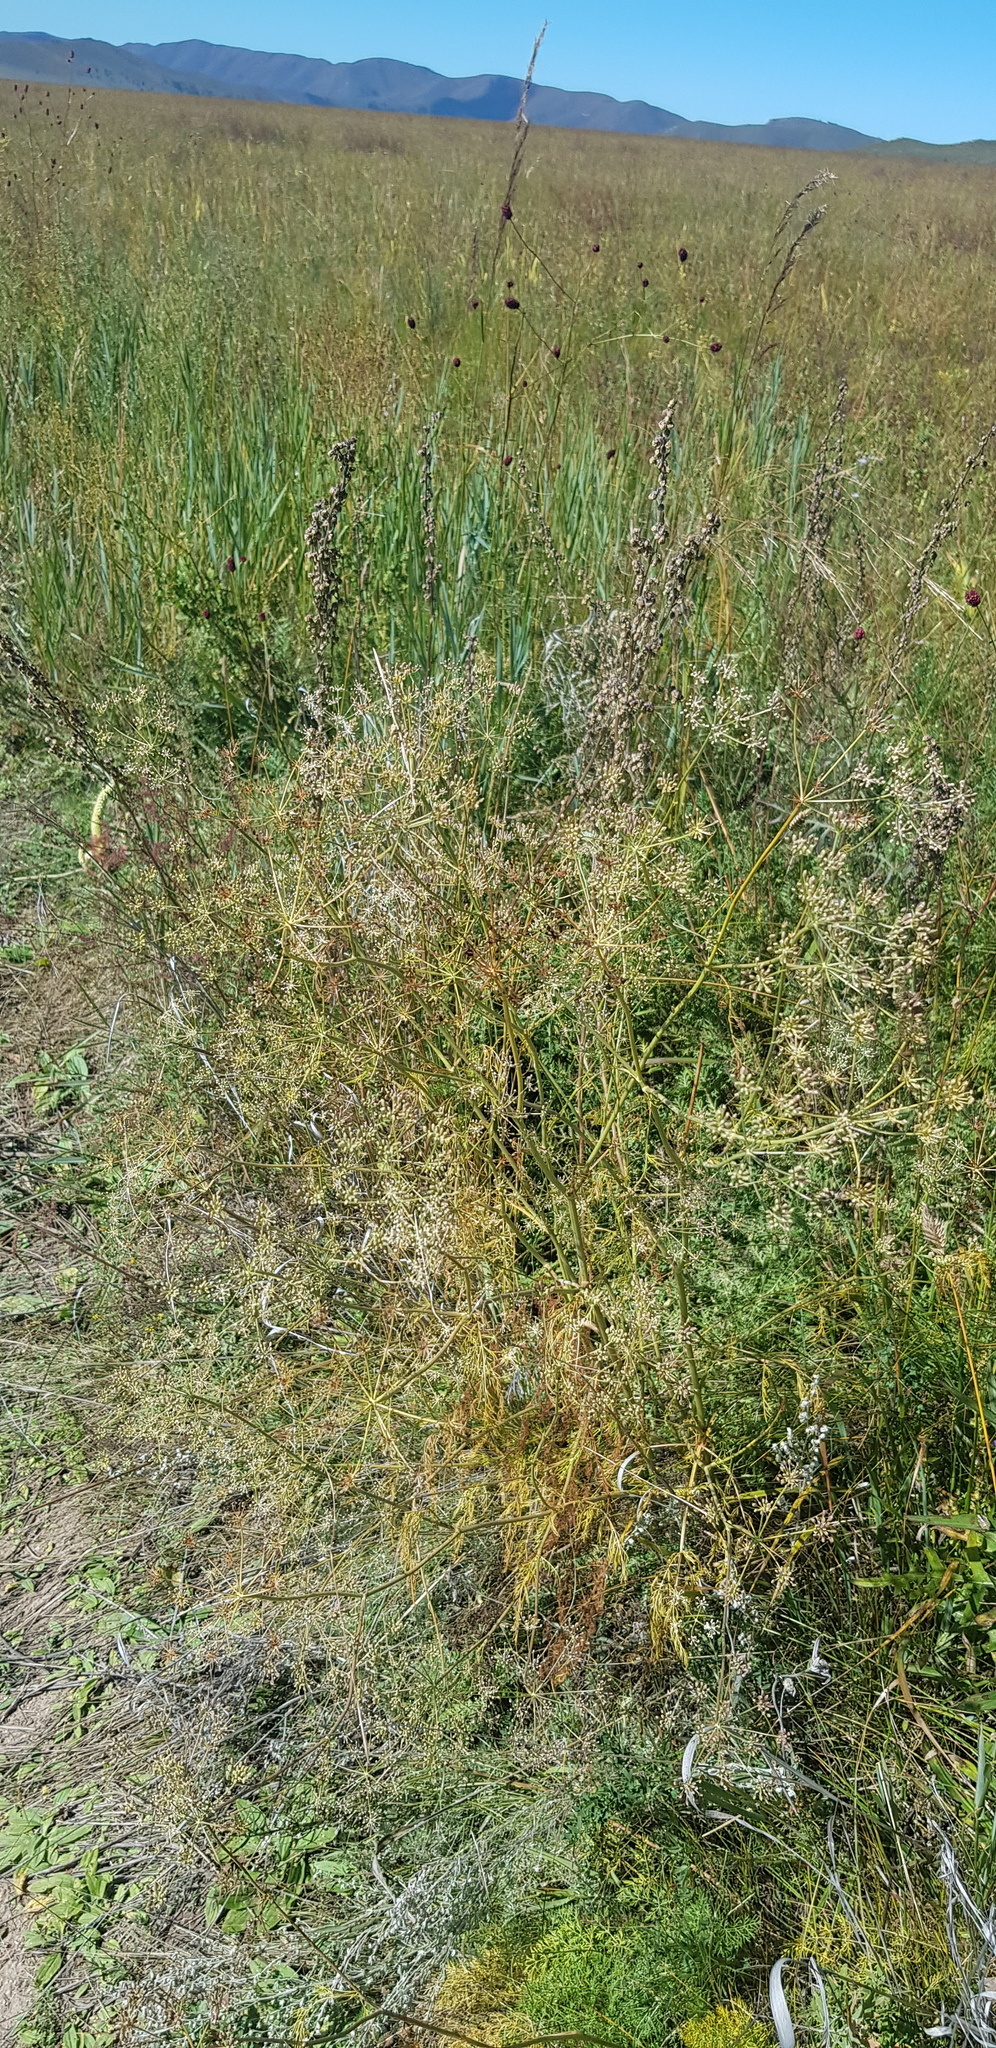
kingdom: Plantae
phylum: Tracheophyta
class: Magnoliopsida
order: Apiales
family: Apiaceae
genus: Sphallerocarpus
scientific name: Sphallerocarpus gracilis
